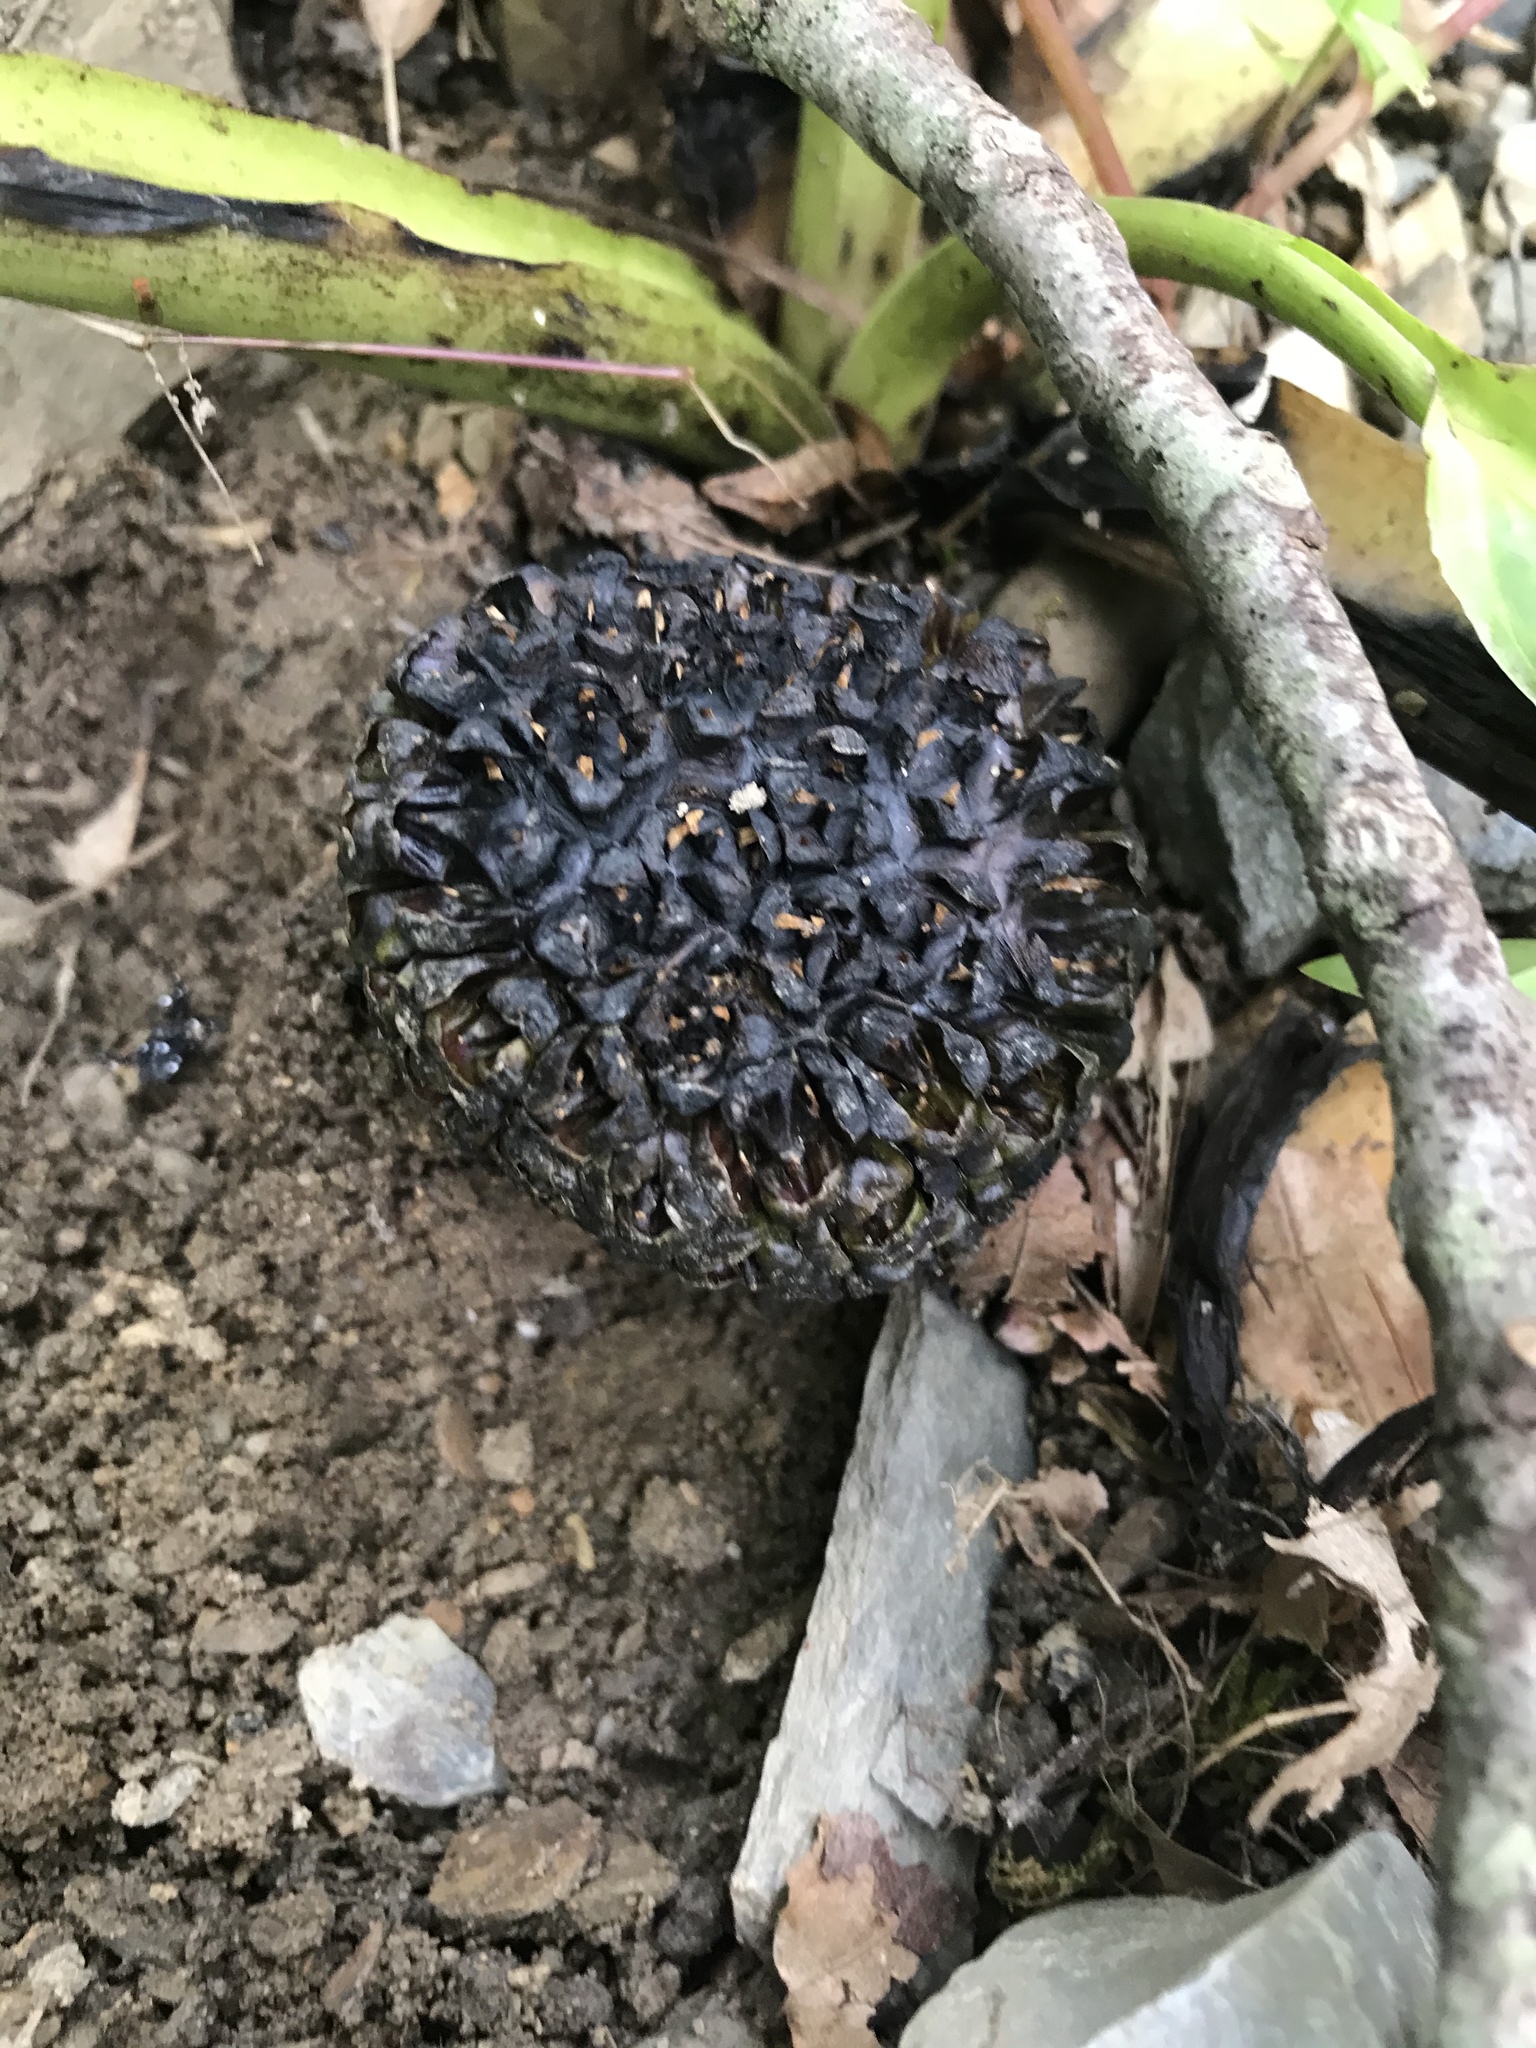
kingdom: Plantae
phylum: Tracheophyta
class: Liliopsida
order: Alismatales
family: Araceae
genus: Symplocarpus
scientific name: Symplocarpus foetidus
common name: Eastern skunk cabbage
